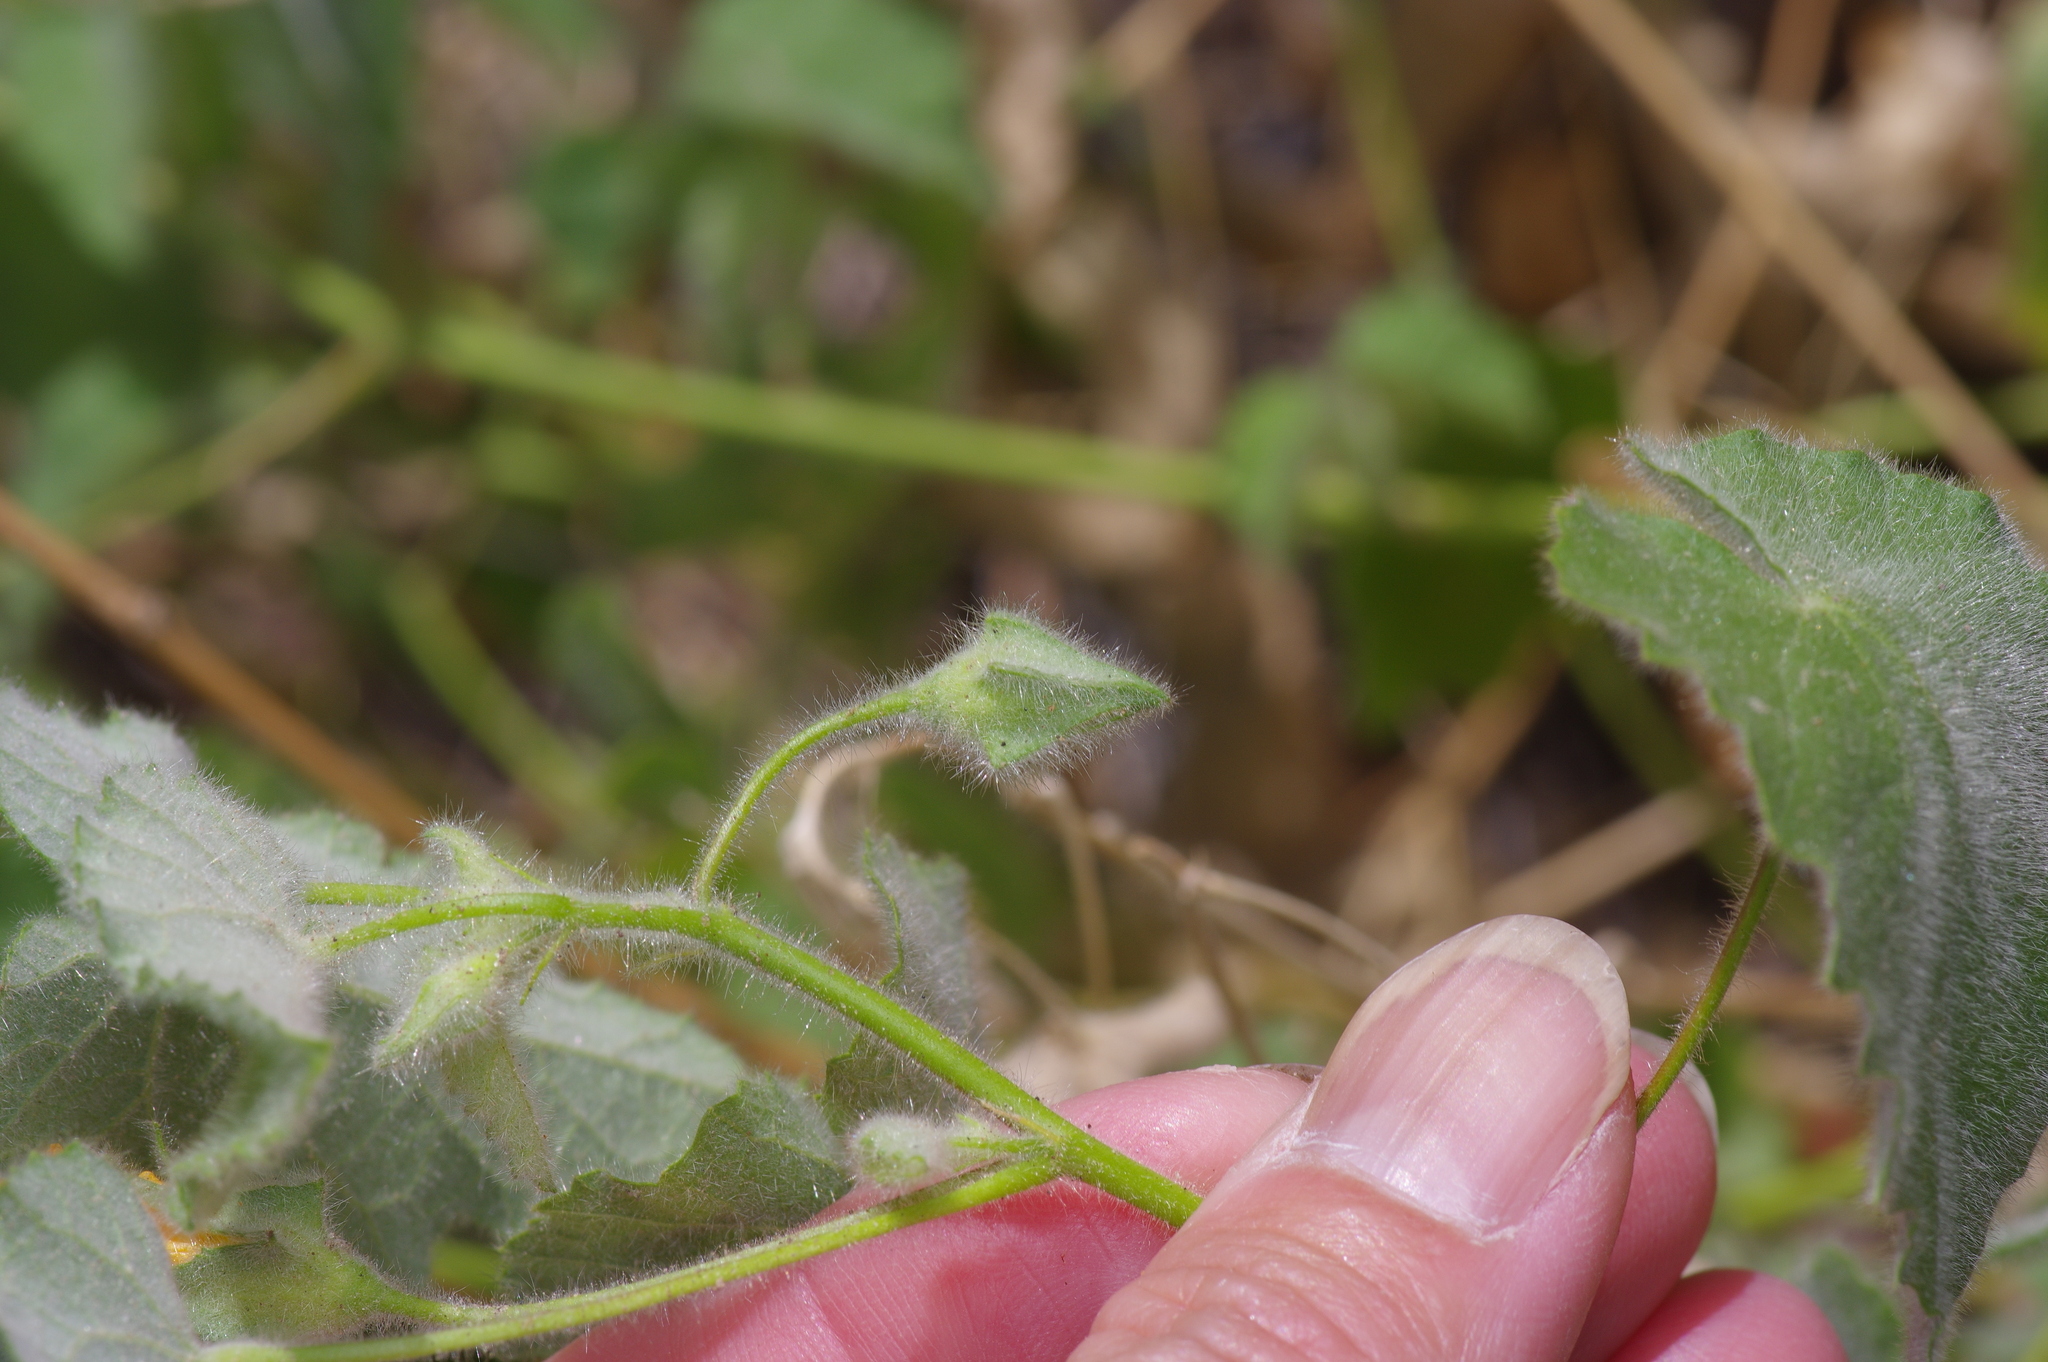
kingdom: Plantae
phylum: Tracheophyta
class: Magnoliopsida
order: Malvales
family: Malvaceae
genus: Abutilon
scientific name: Abutilon wrightii
